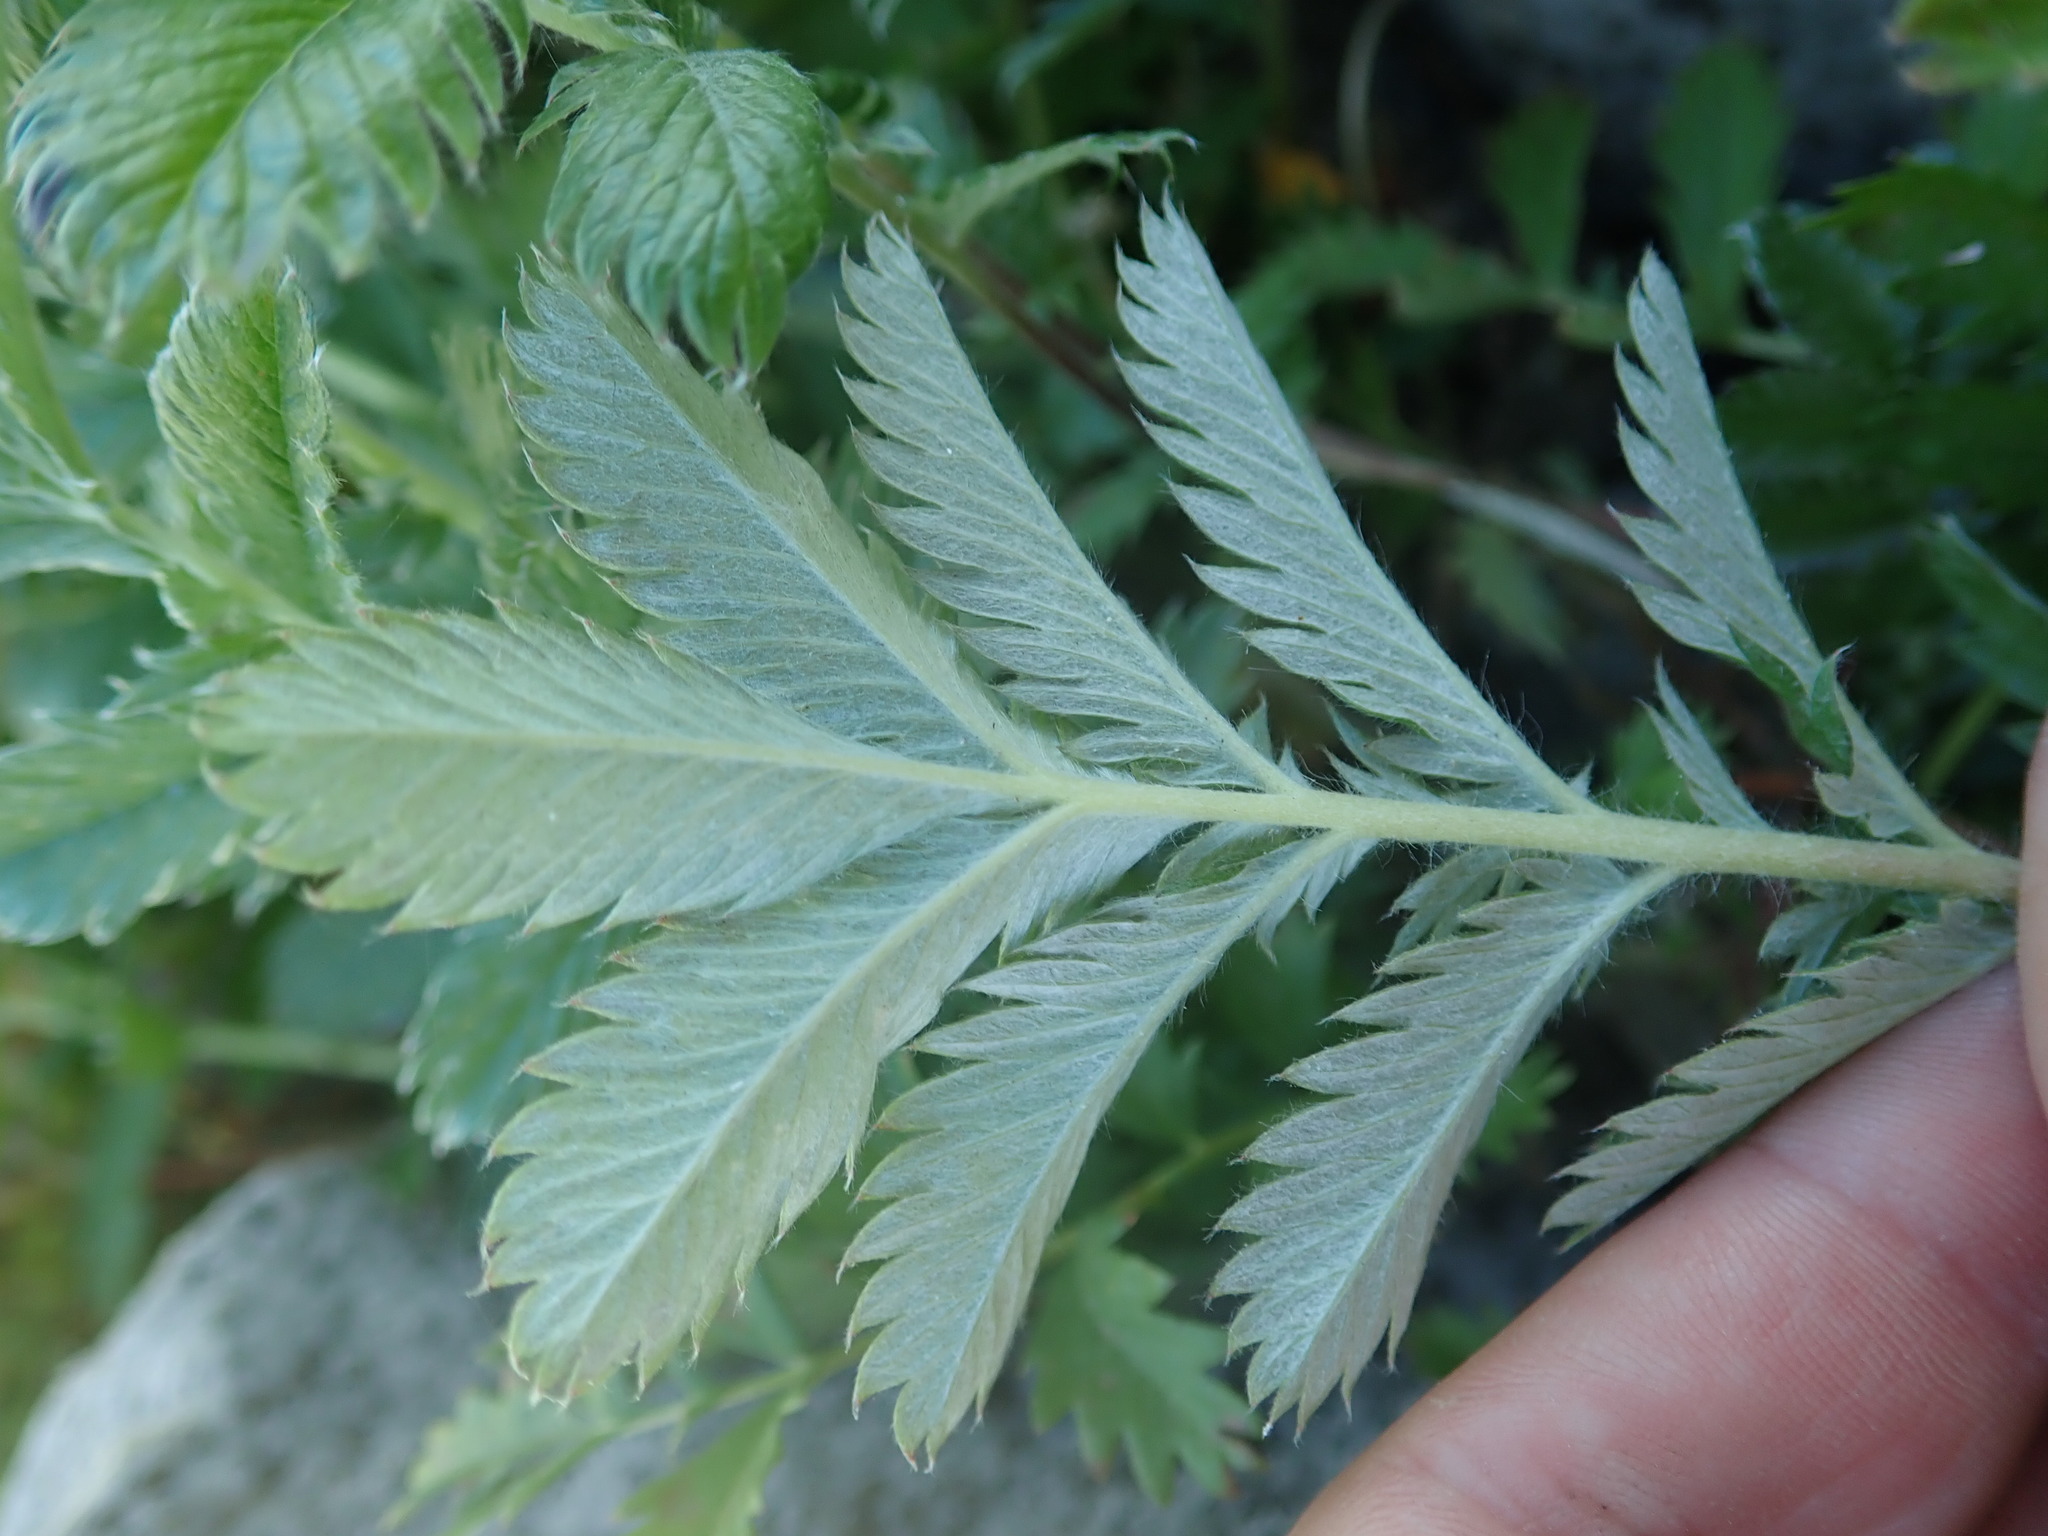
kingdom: Plantae
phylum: Tracheophyta
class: Magnoliopsida
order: Rosales
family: Rosaceae
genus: Argentina
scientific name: Argentina anserina
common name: Common silverweed
